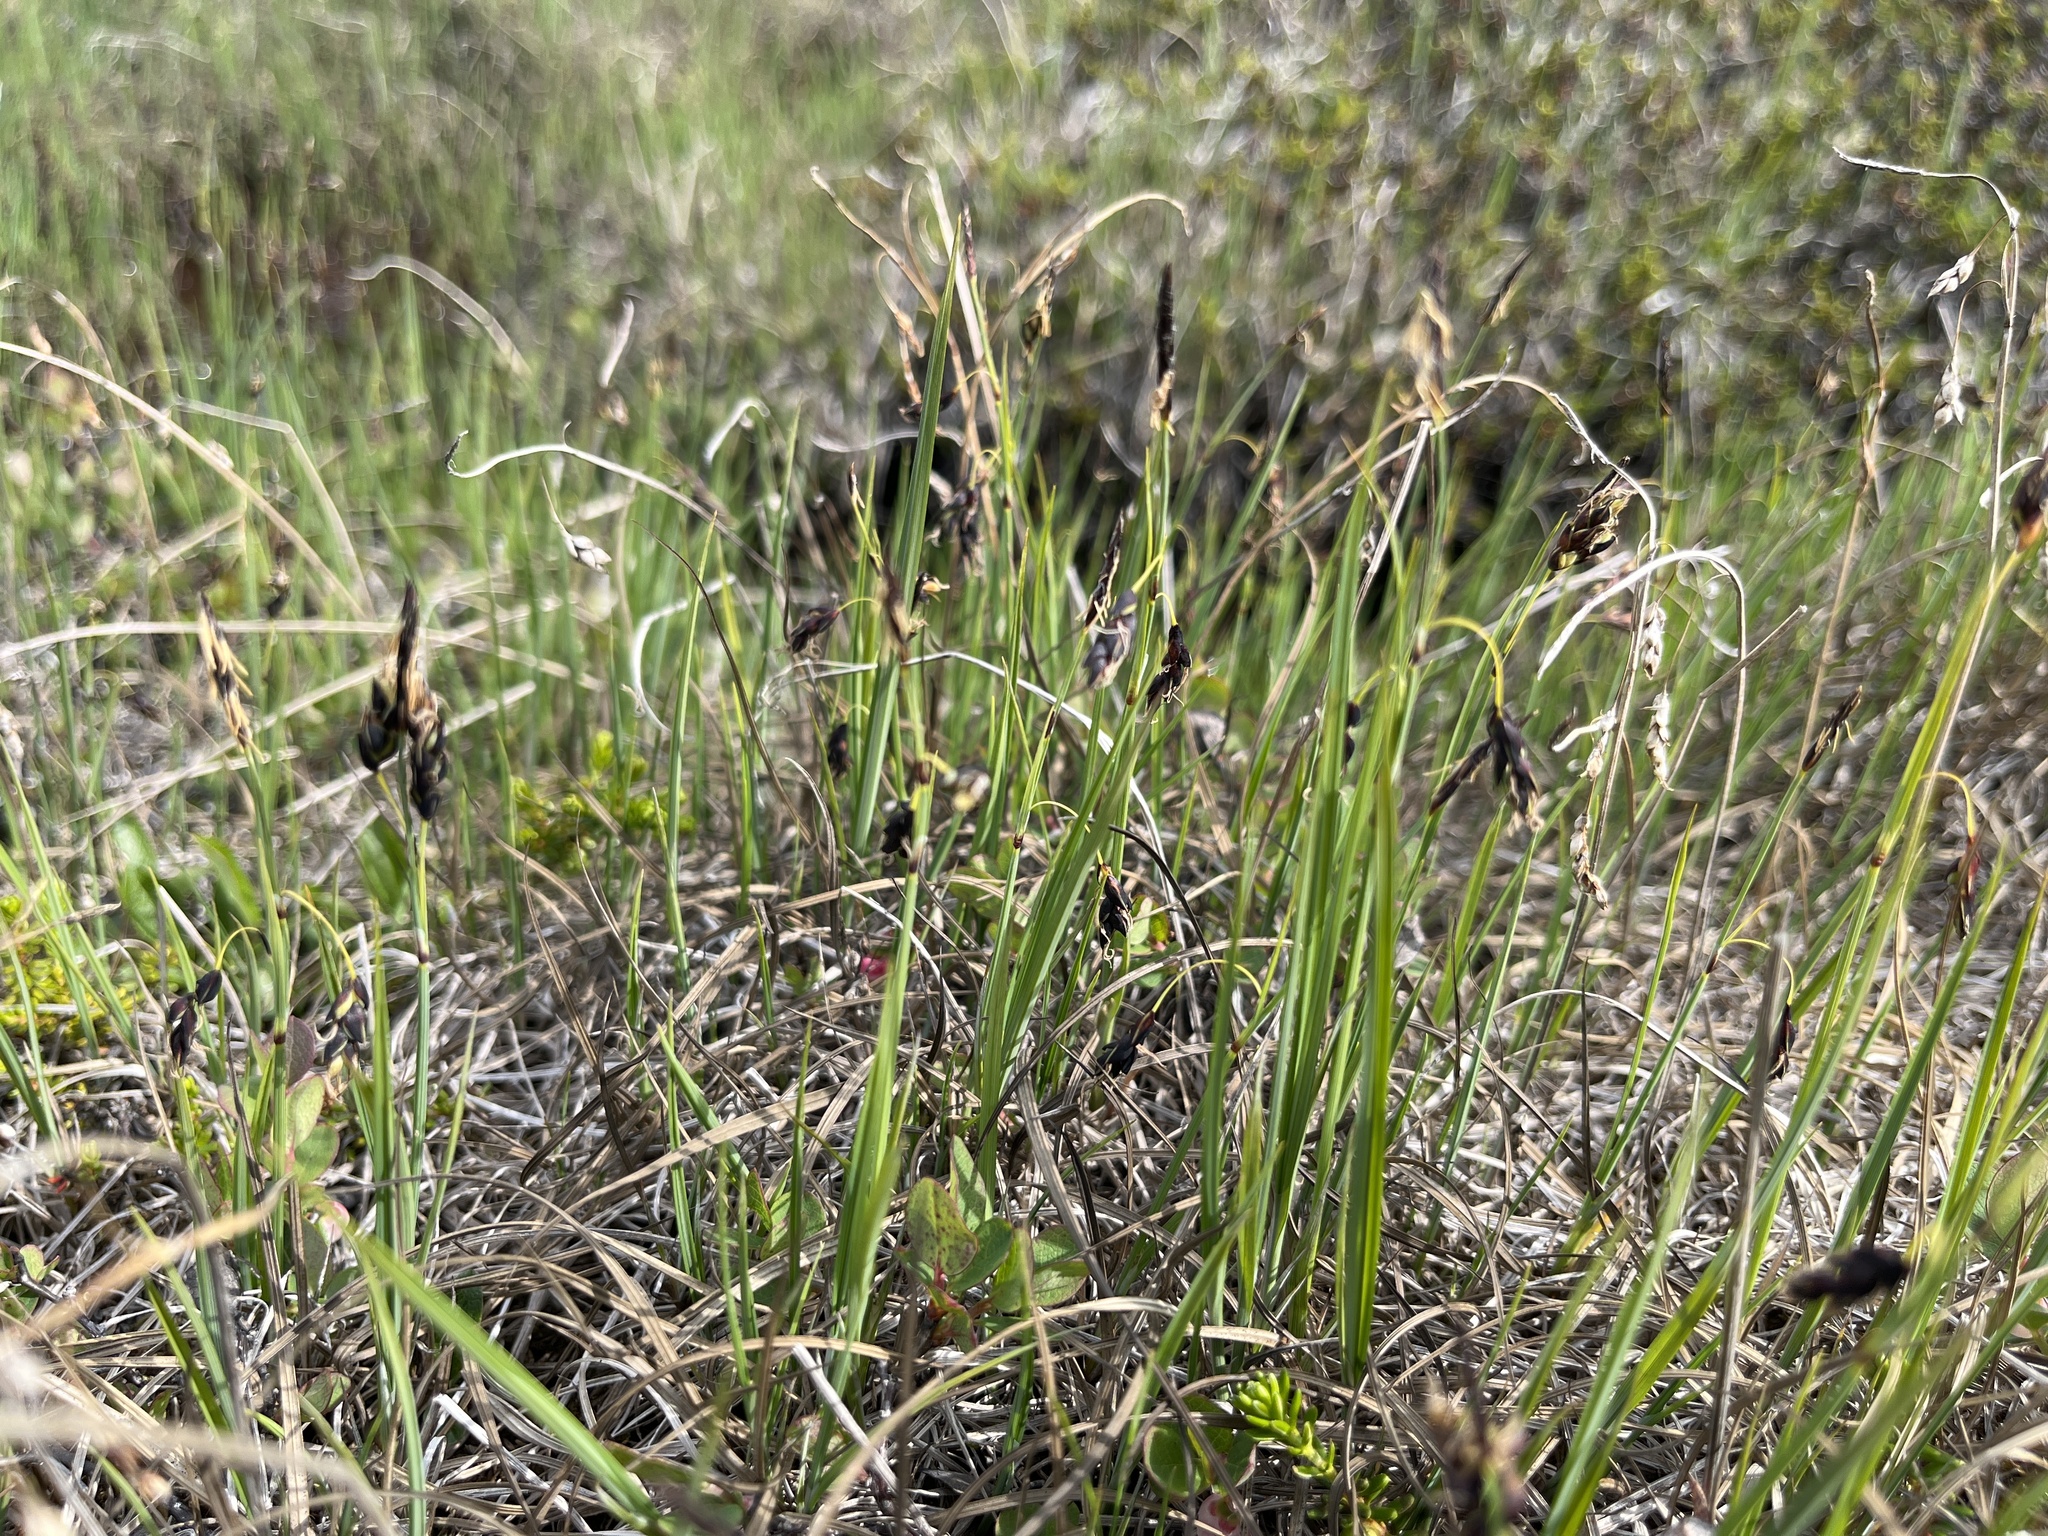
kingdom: Plantae
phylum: Tracheophyta
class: Liliopsida
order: Poales
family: Cyperaceae
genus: Carex
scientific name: Carex rariflora
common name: Loose-flowered alpine sedge
